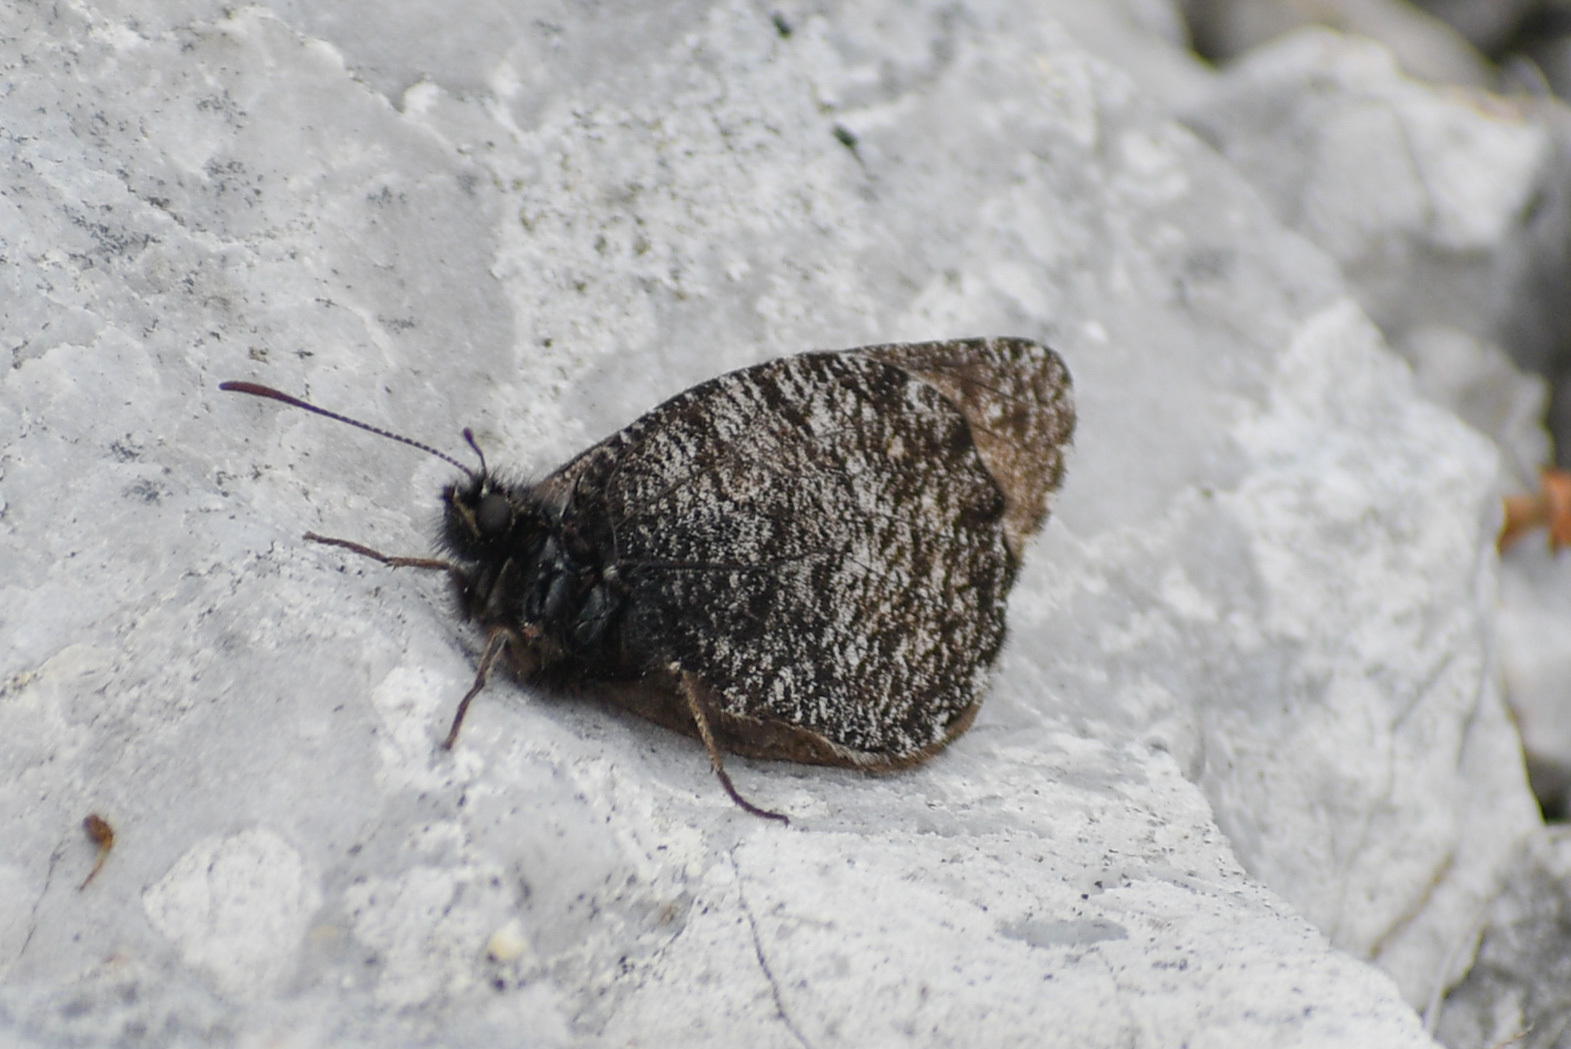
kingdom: Animalia
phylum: Arthropoda
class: Insecta
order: Lepidoptera
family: Nymphalidae
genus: Oeneis
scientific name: Oeneis melissa
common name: Melissa arctic
